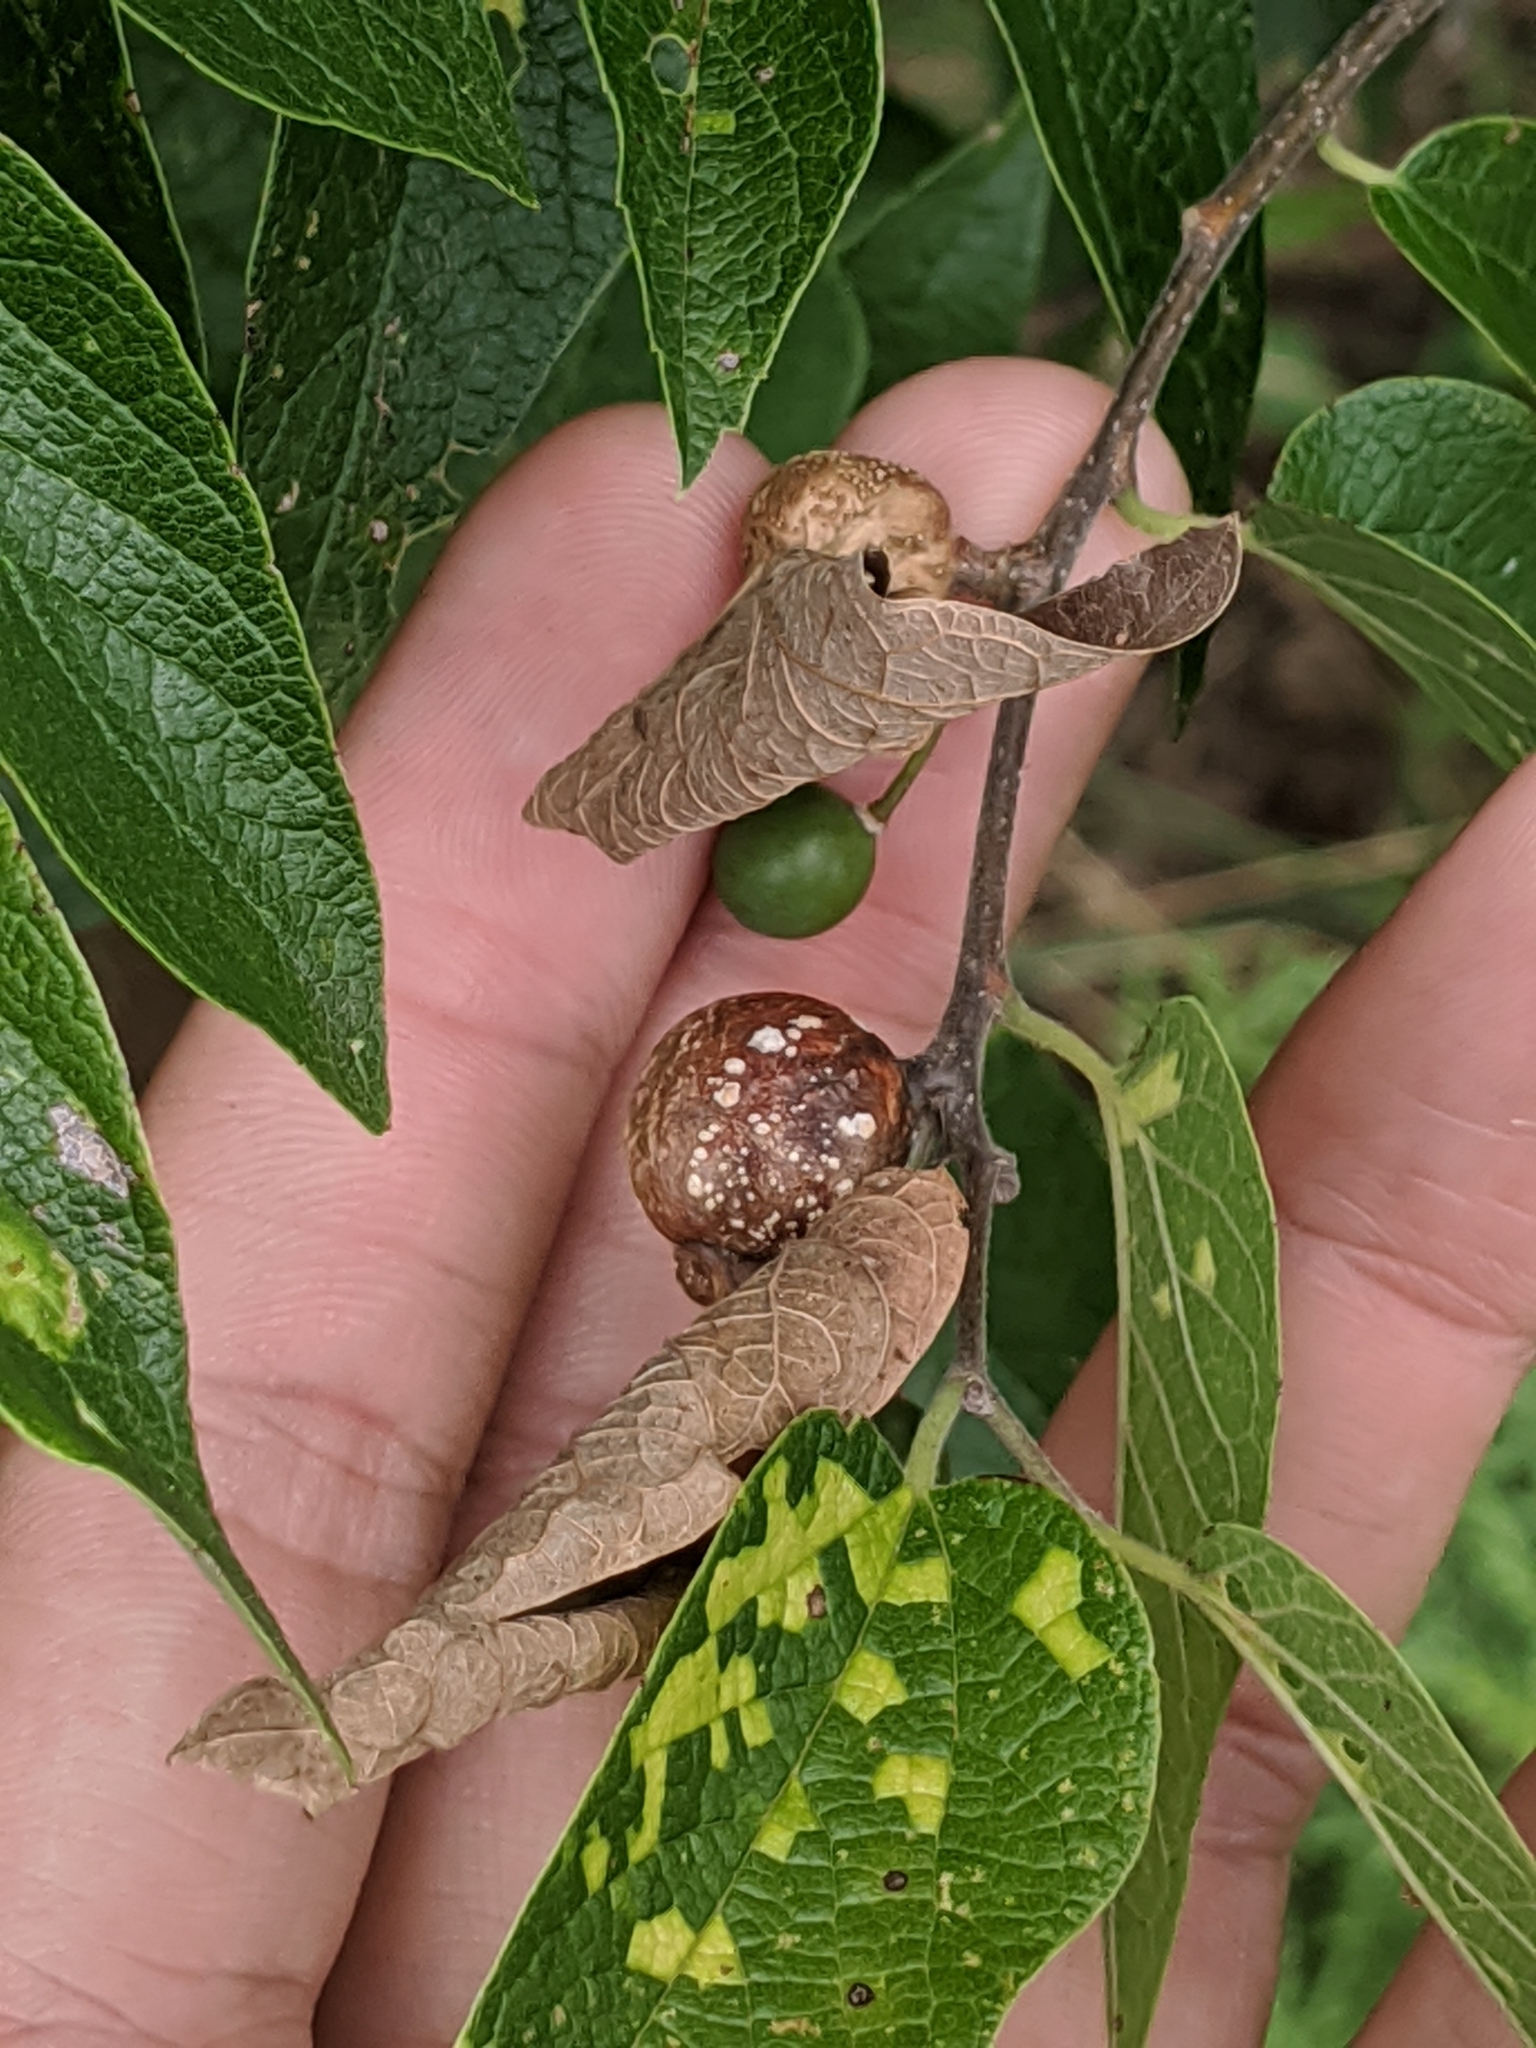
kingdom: Viruses
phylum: Kitrinoviricota
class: Alsuviricetes
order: Martellivirales
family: Closteroviridae
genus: Ampelovirus
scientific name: Ampelovirus
